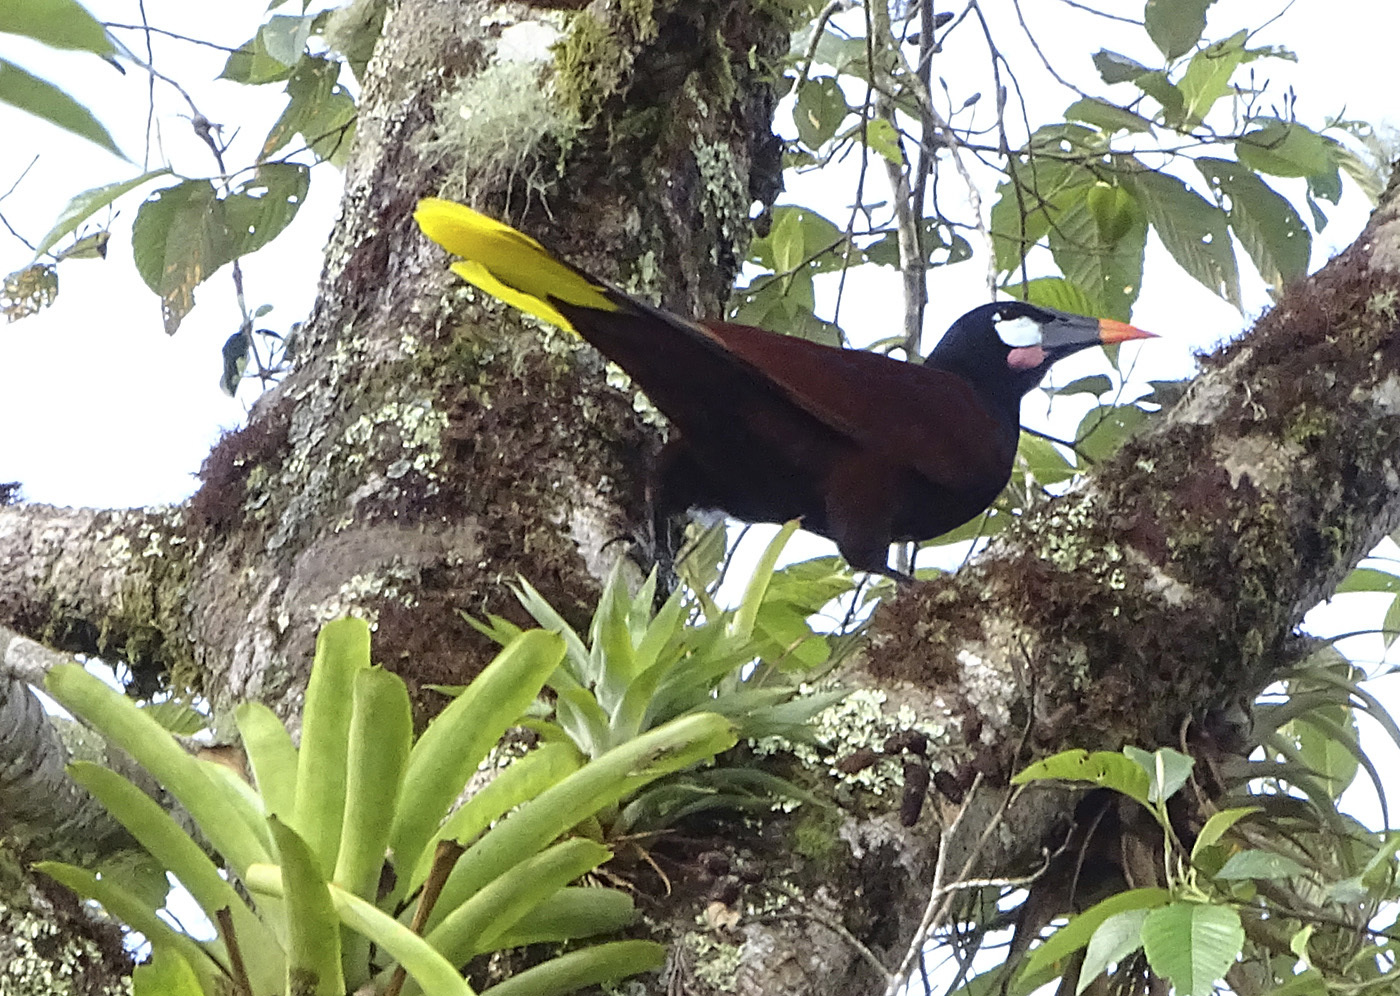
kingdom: Animalia
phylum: Chordata
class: Aves
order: Passeriformes
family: Icteridae
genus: Psarocolius
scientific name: Psarocolius montezuma
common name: Montezuma oropendola
